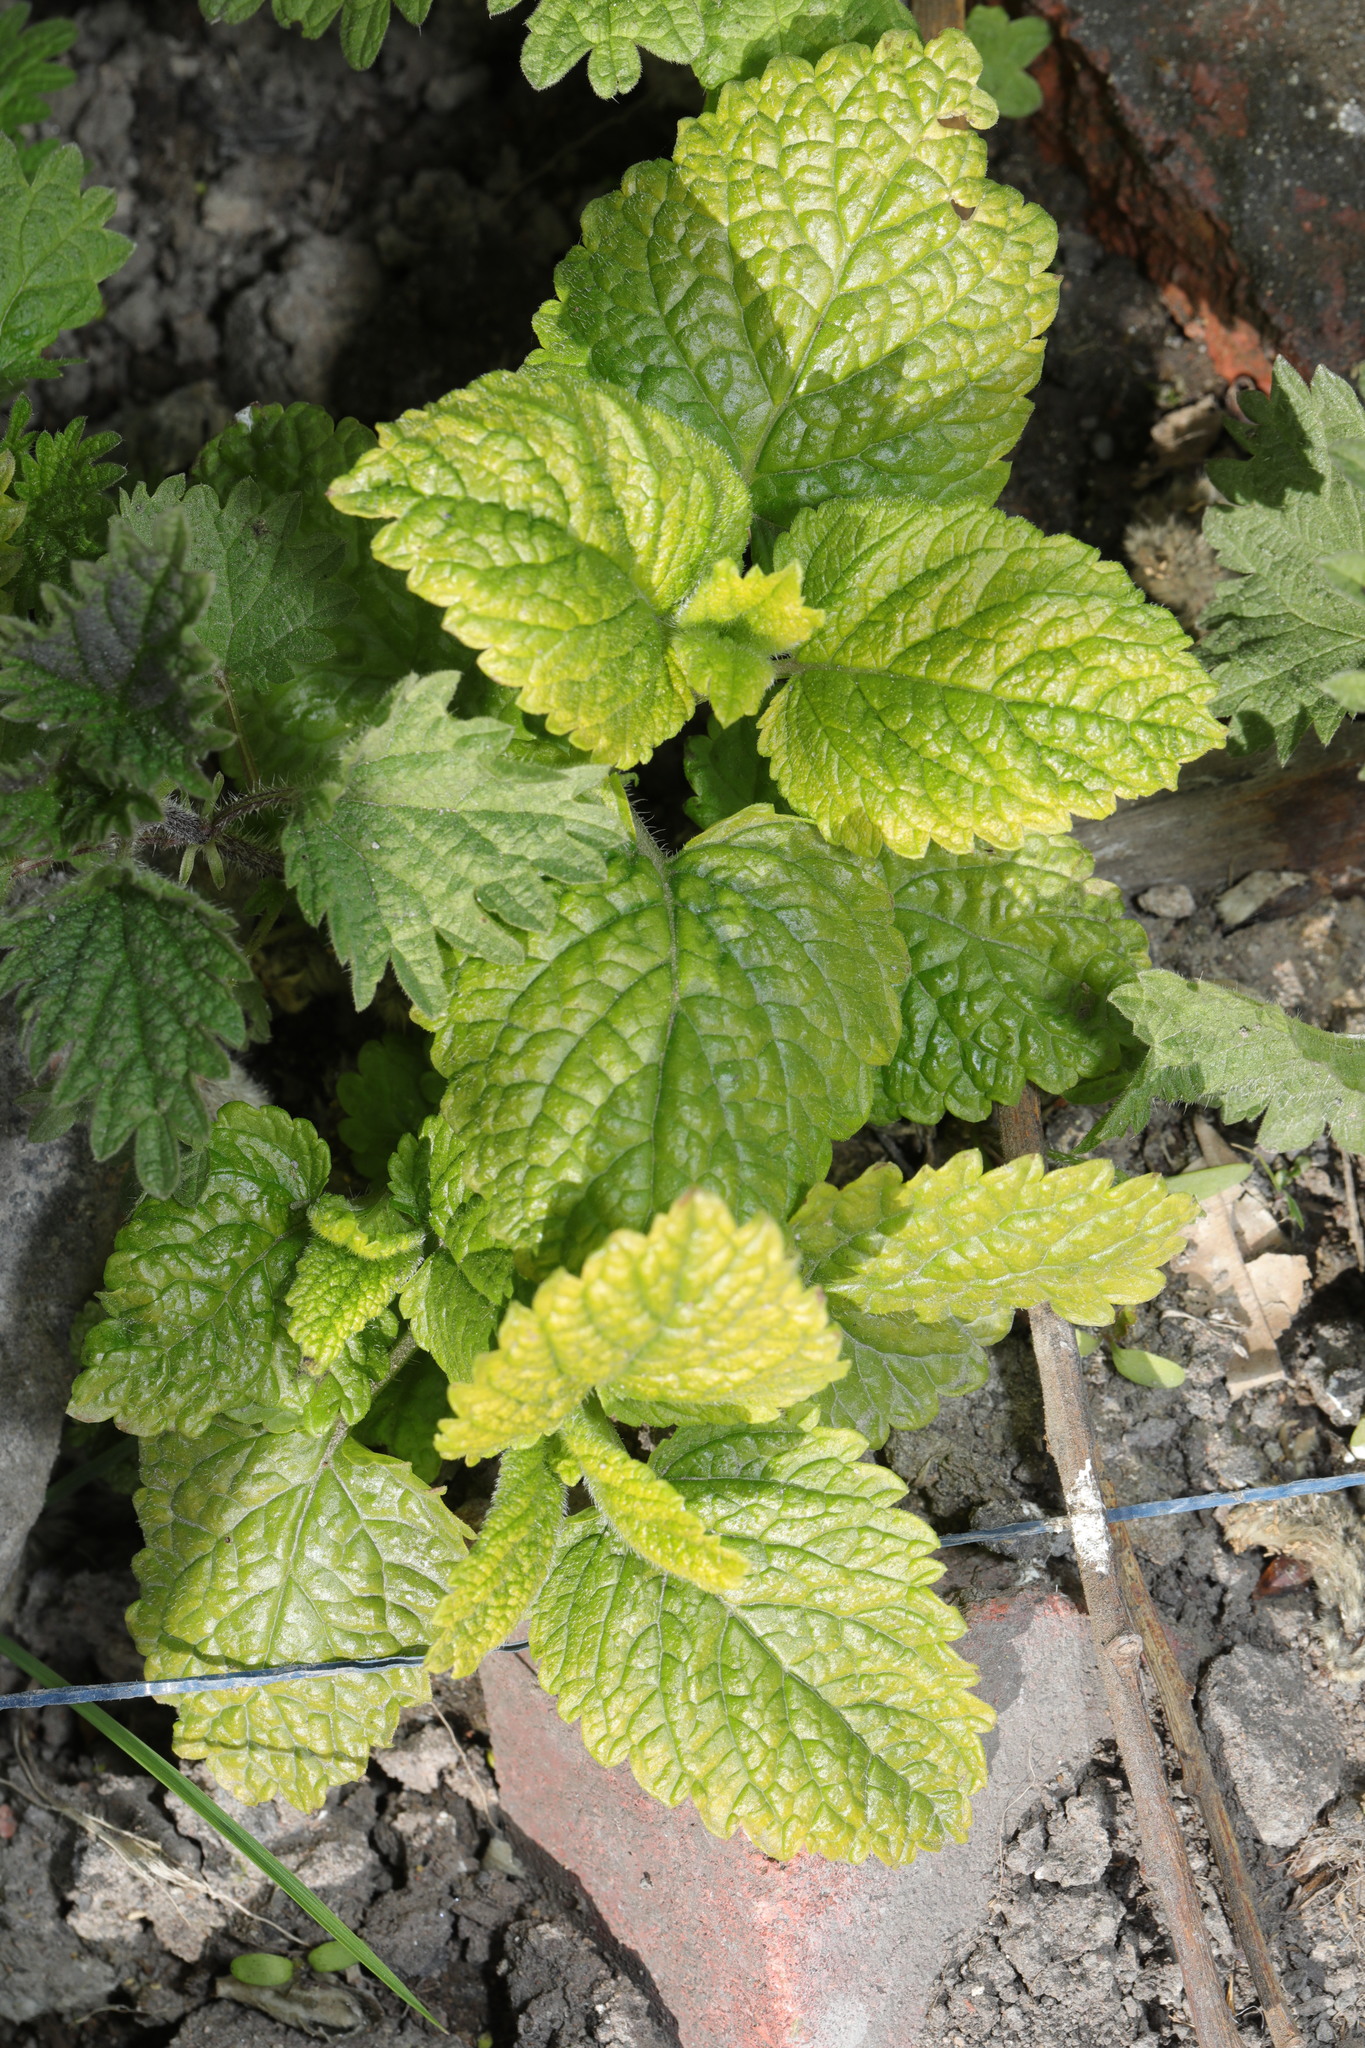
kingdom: Plantae
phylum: Tracheophyta
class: Magnoliopsida
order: Lamiales
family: Lamiaceae
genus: Melissa
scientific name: Melissa officinalis
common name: Balm
